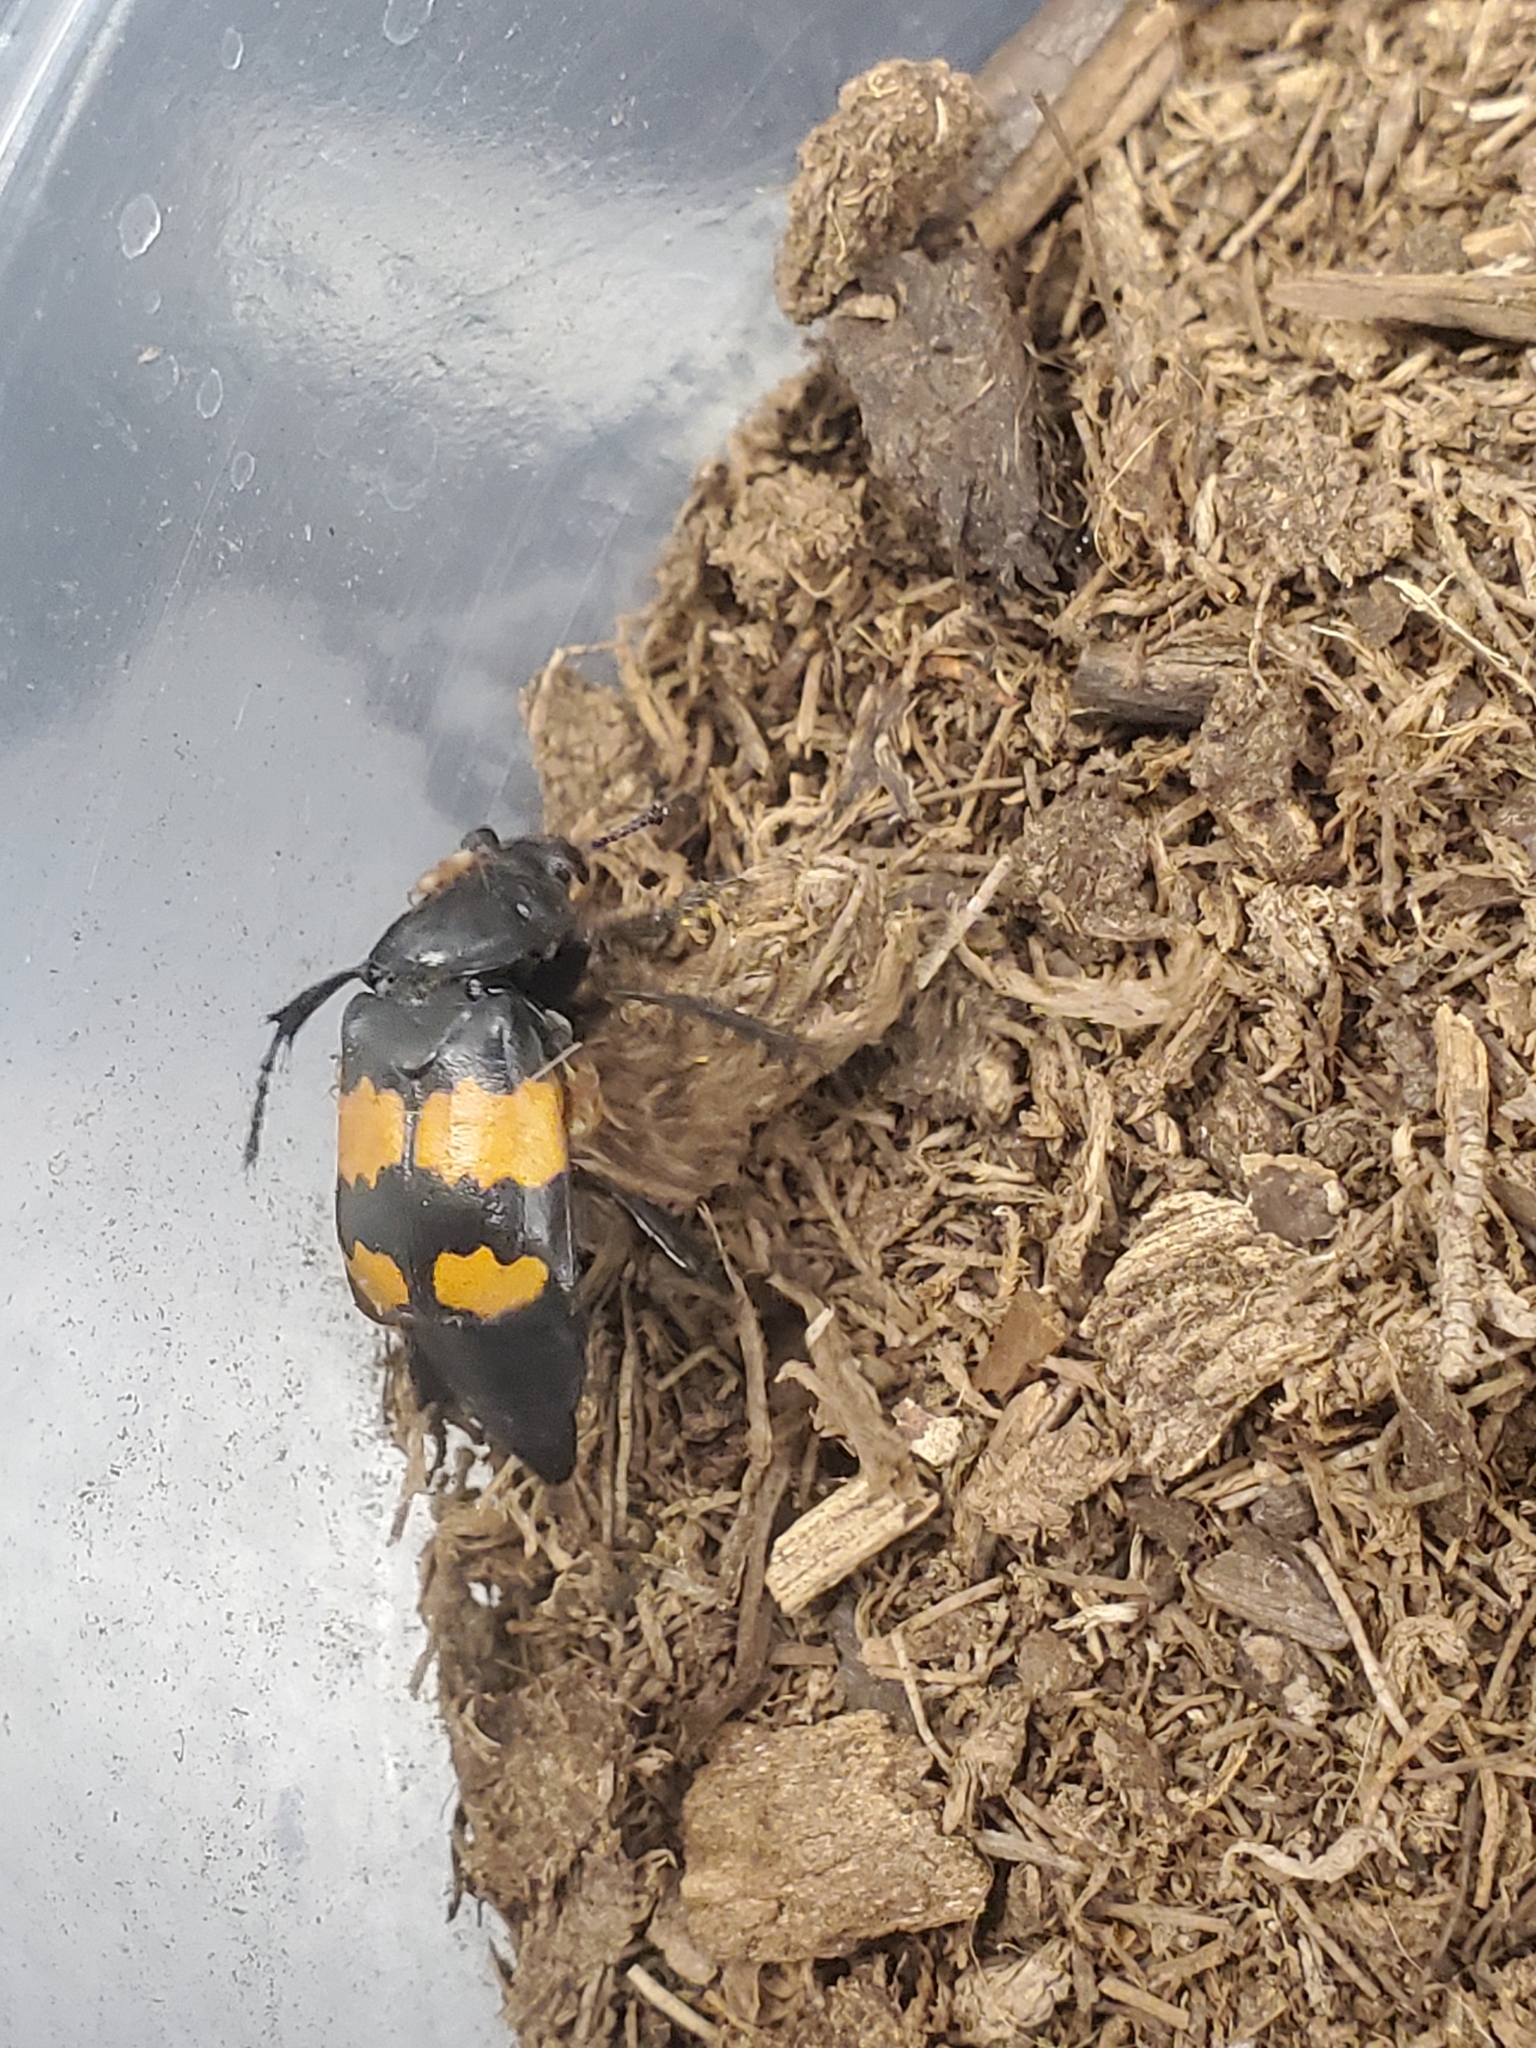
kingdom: Animalia
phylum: Arthropoda
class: Insecta
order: Coleoptera
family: Staphylinidae
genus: Nicrophorus
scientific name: Nicrophorus defodiens
